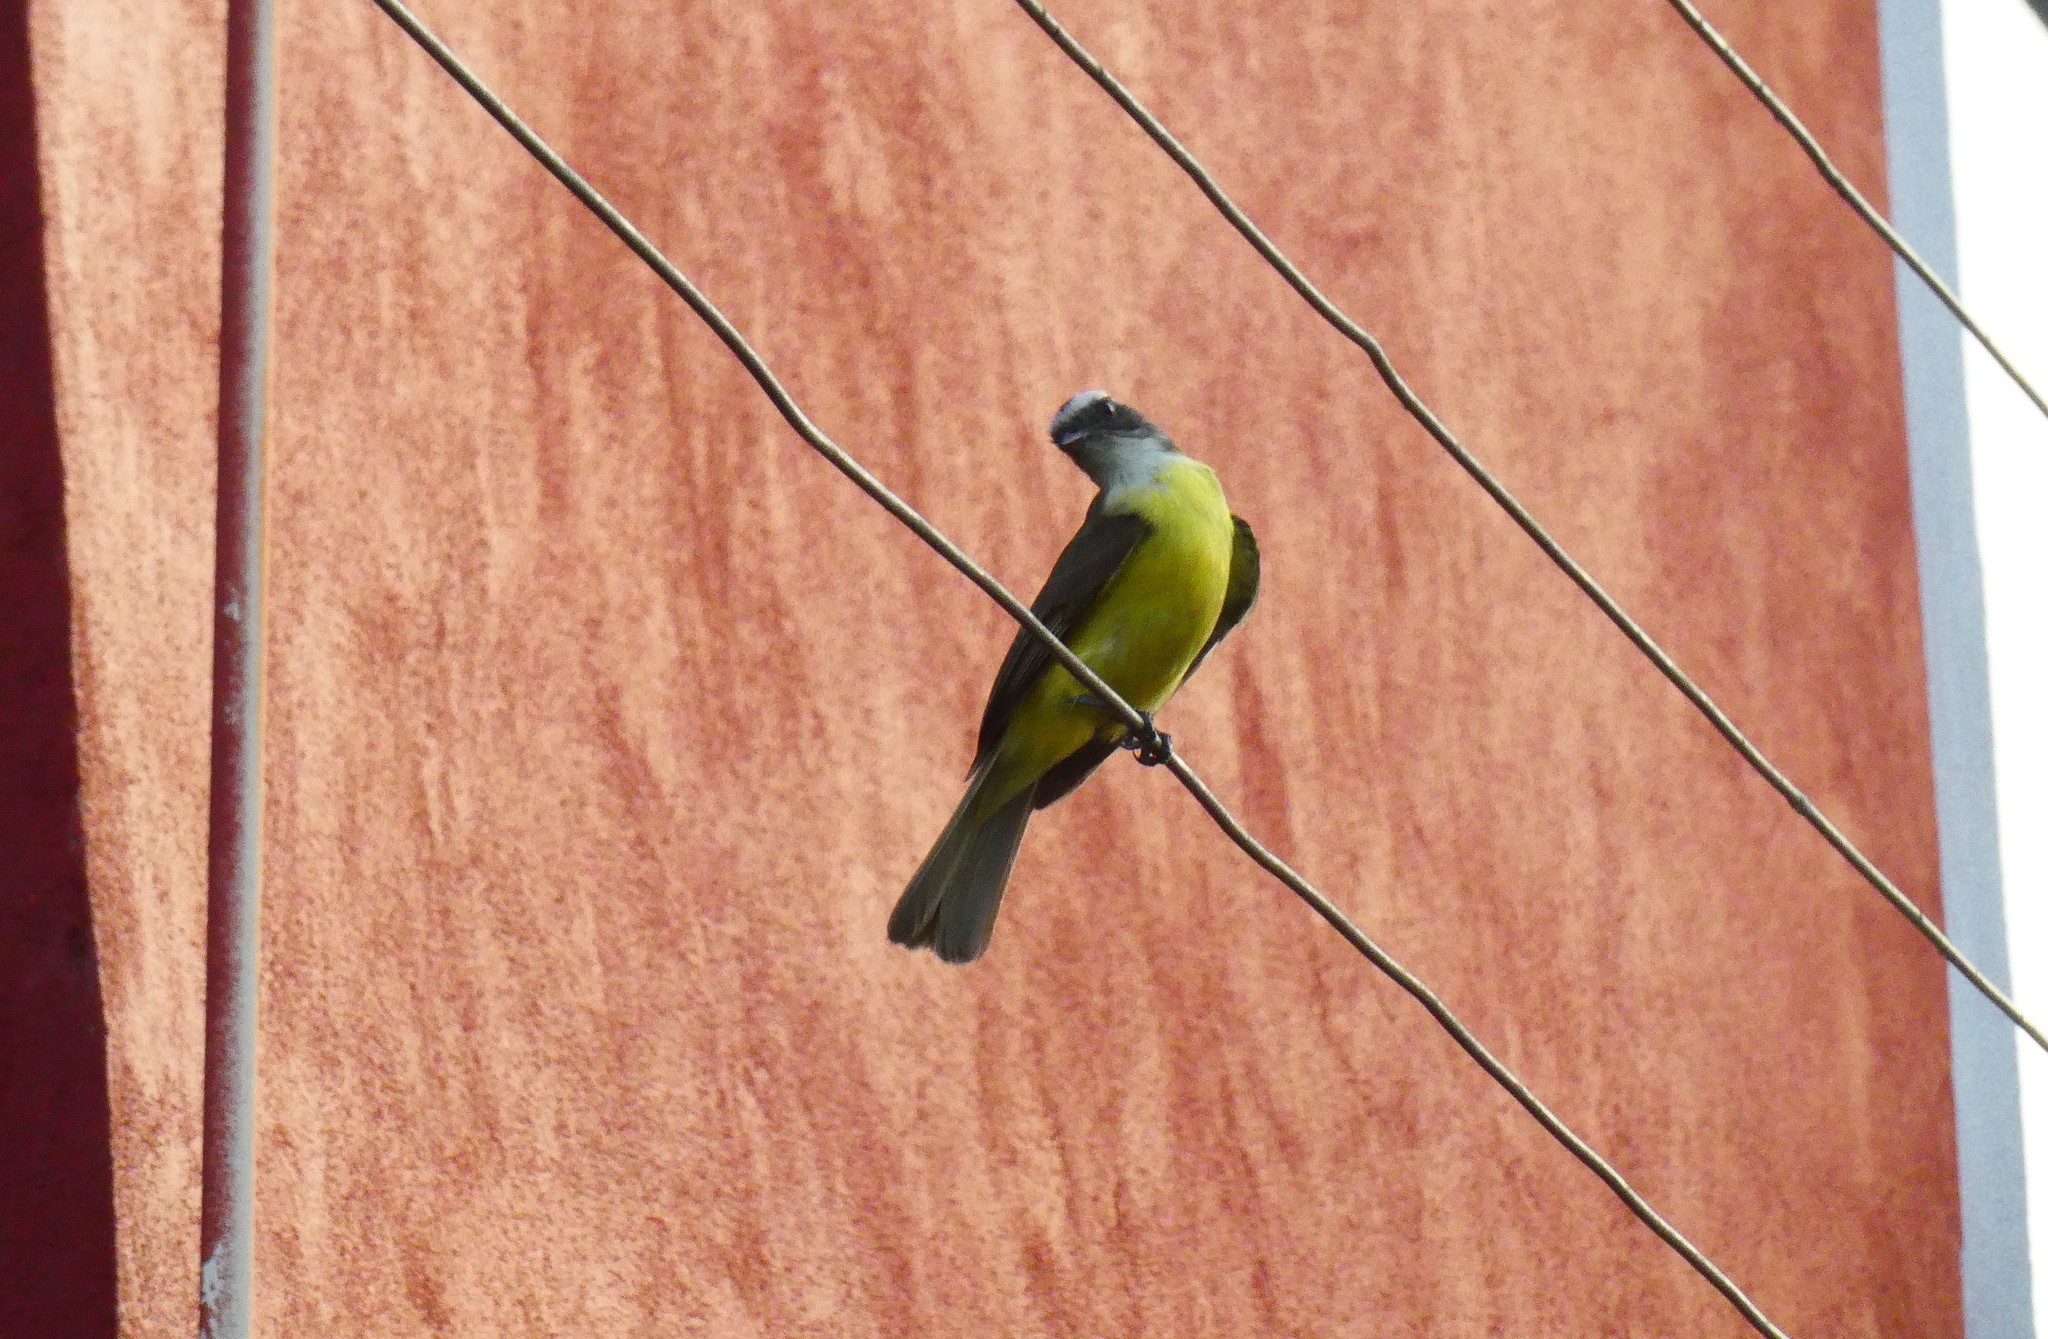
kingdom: Animalia
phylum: Chordata
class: Aves
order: Passeriformes
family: Tyrannidae
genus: Myiozetetes
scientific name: Myiozetetes similis
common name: Social flycatcher
